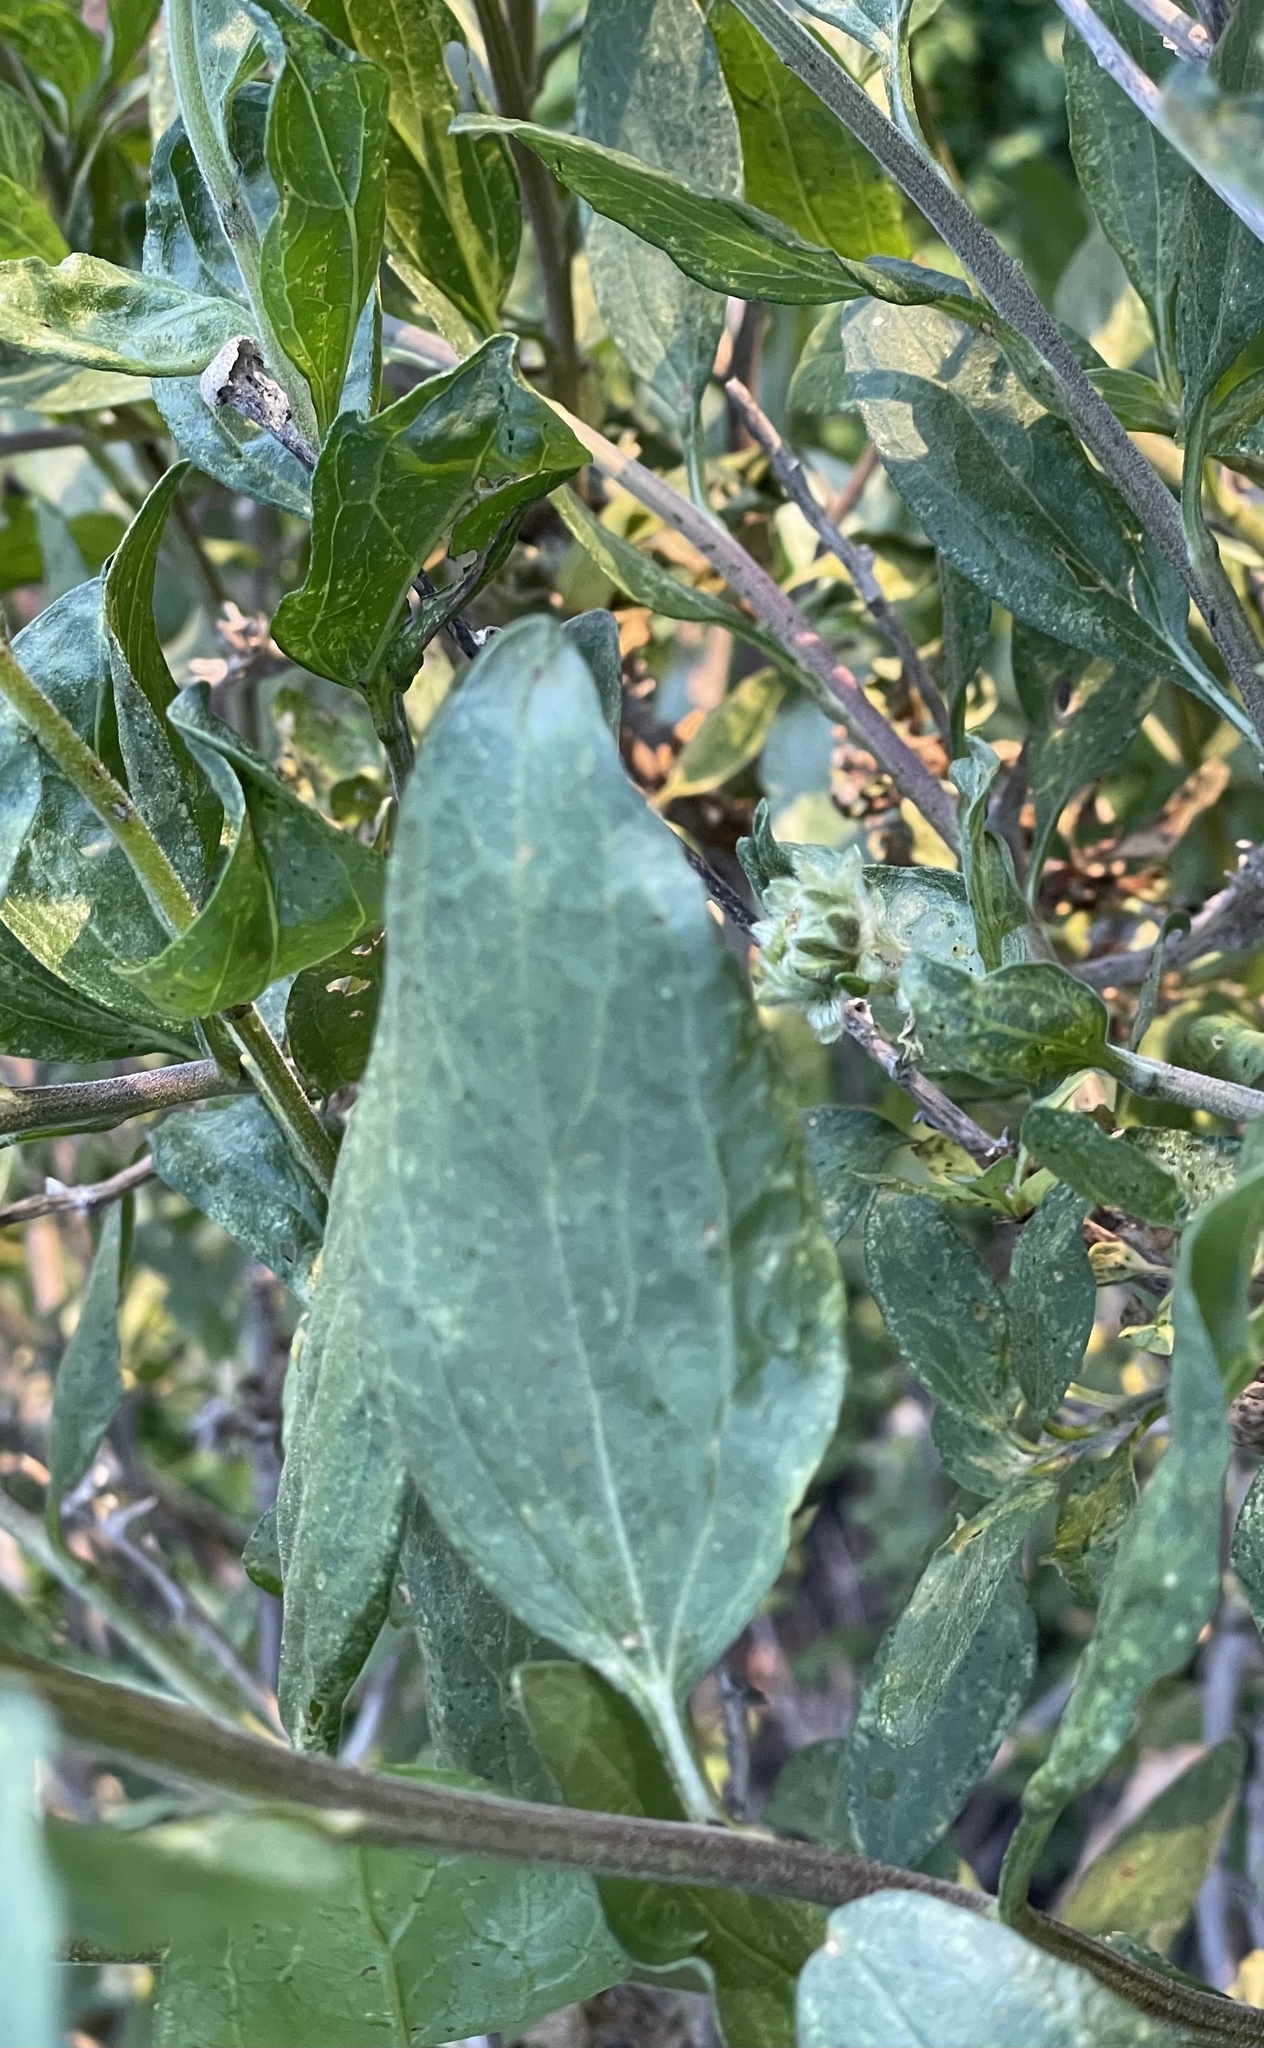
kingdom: Plantae
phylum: Tracheophyta
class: Magnoliopsida
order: Asterales
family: Asteraceae
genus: Encelia
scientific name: Encelia californica
